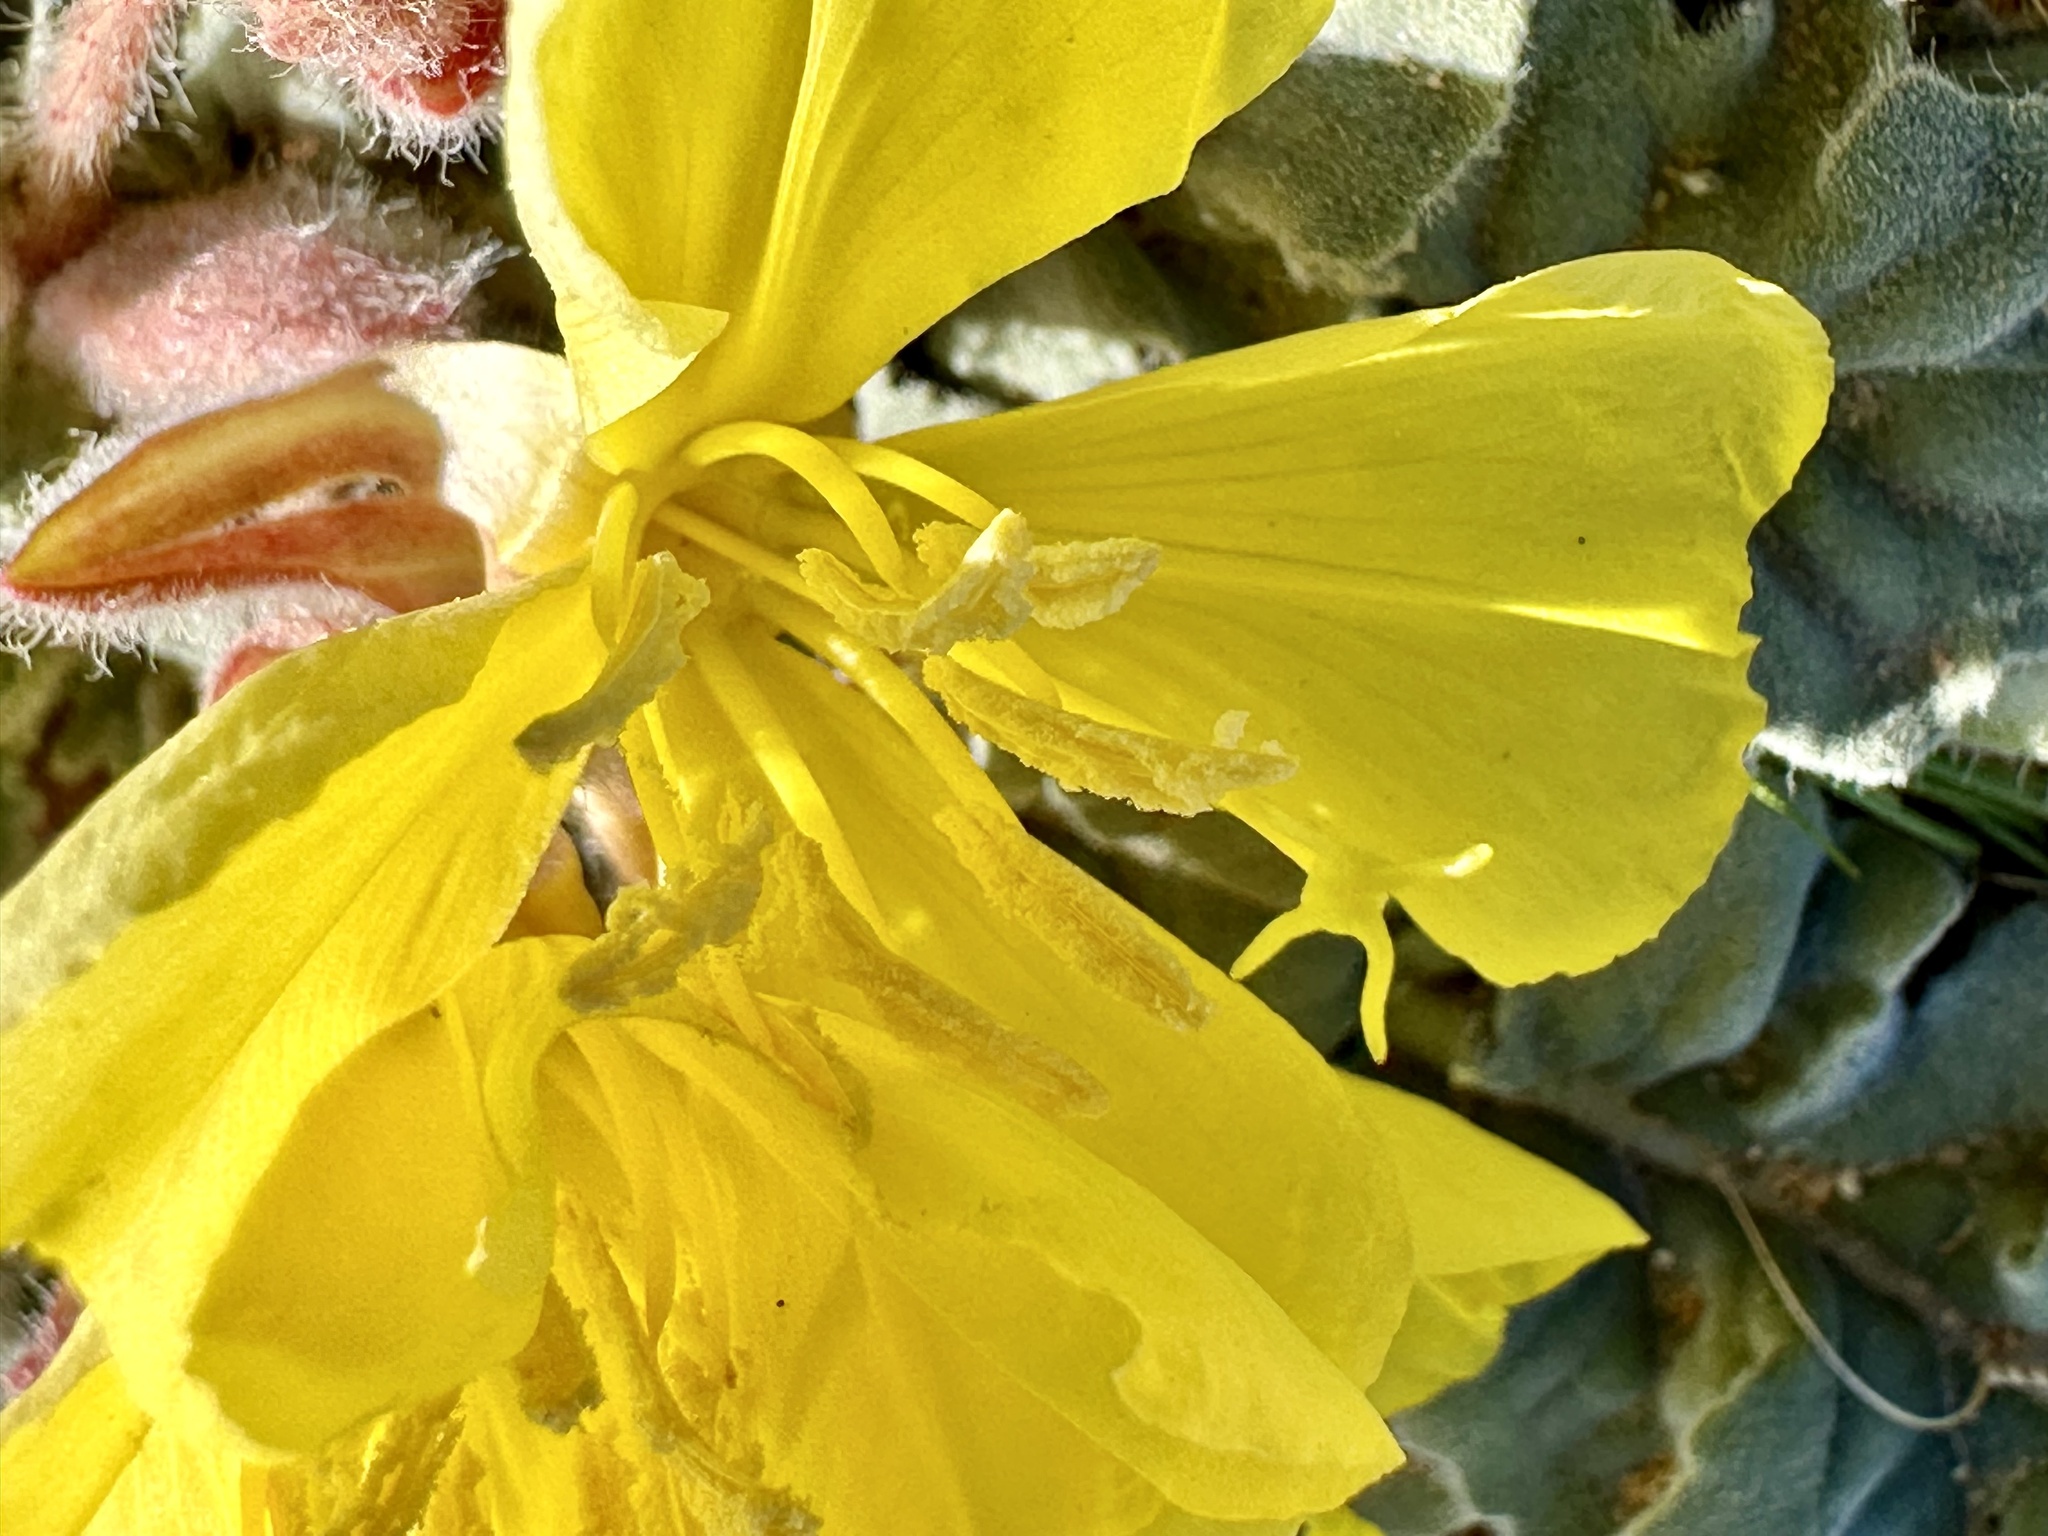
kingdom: Plantae
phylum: Tracheophyta
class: Magnoliopsida
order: Myrtales
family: Onagraceae
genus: Oenothera
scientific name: Oenothera primiveris
